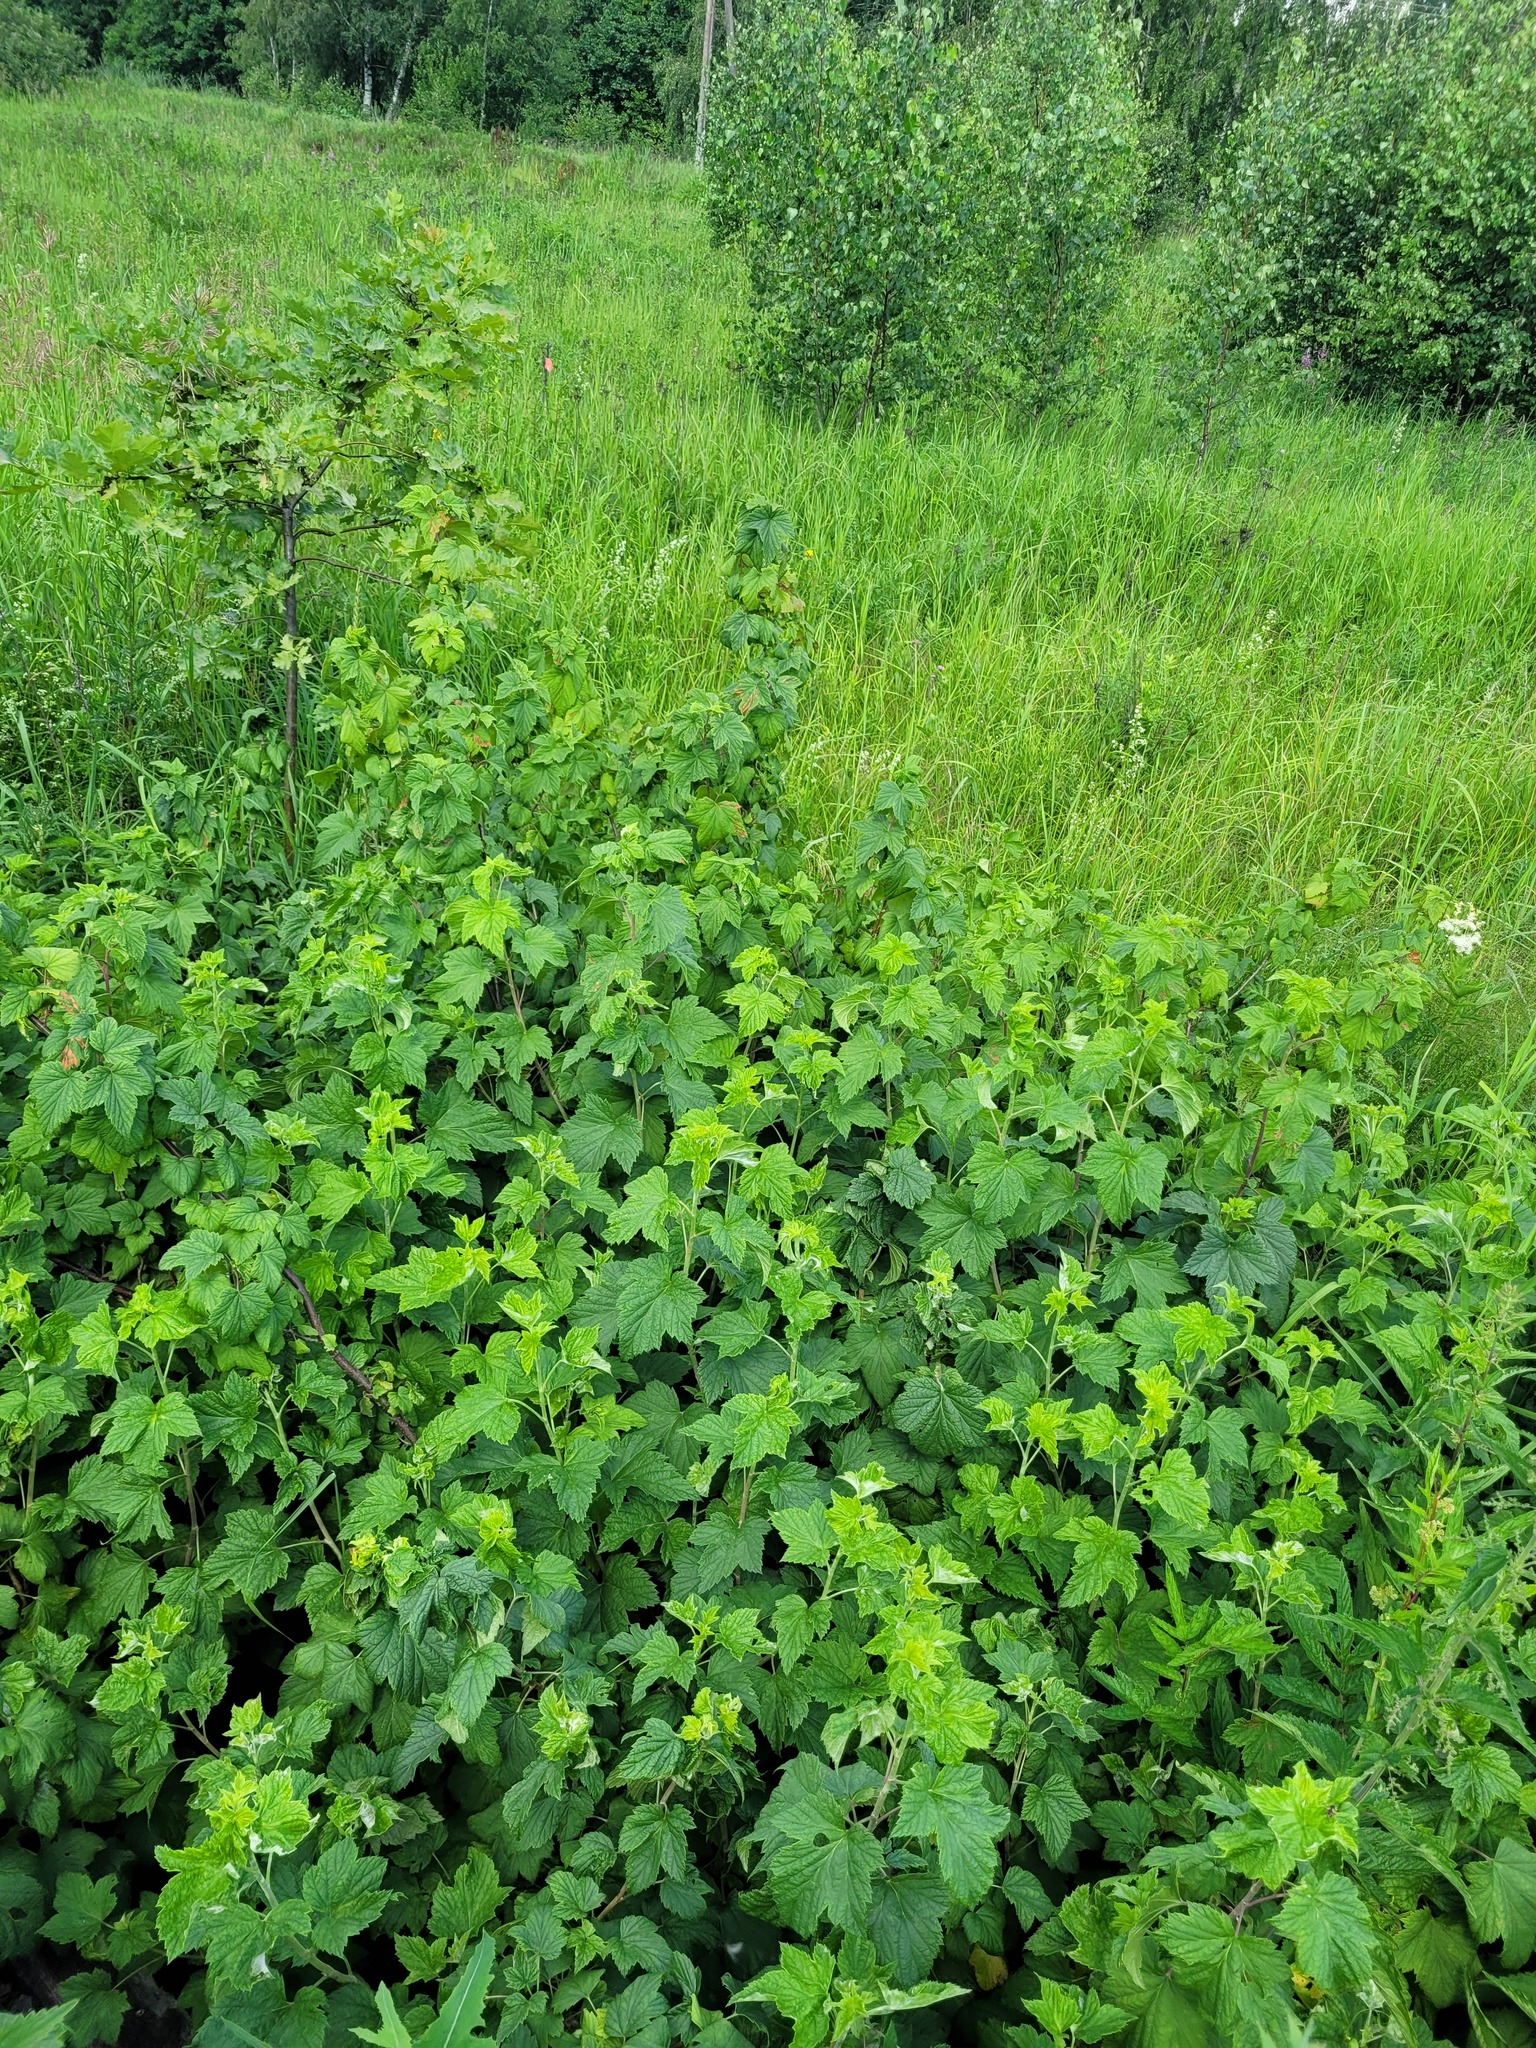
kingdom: Plantae
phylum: Tracheophyta
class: Magnoliopsida
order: Saxifragales
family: Grossulariaceae
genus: Ribes
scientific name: Ribes nigrum
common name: Black currant
